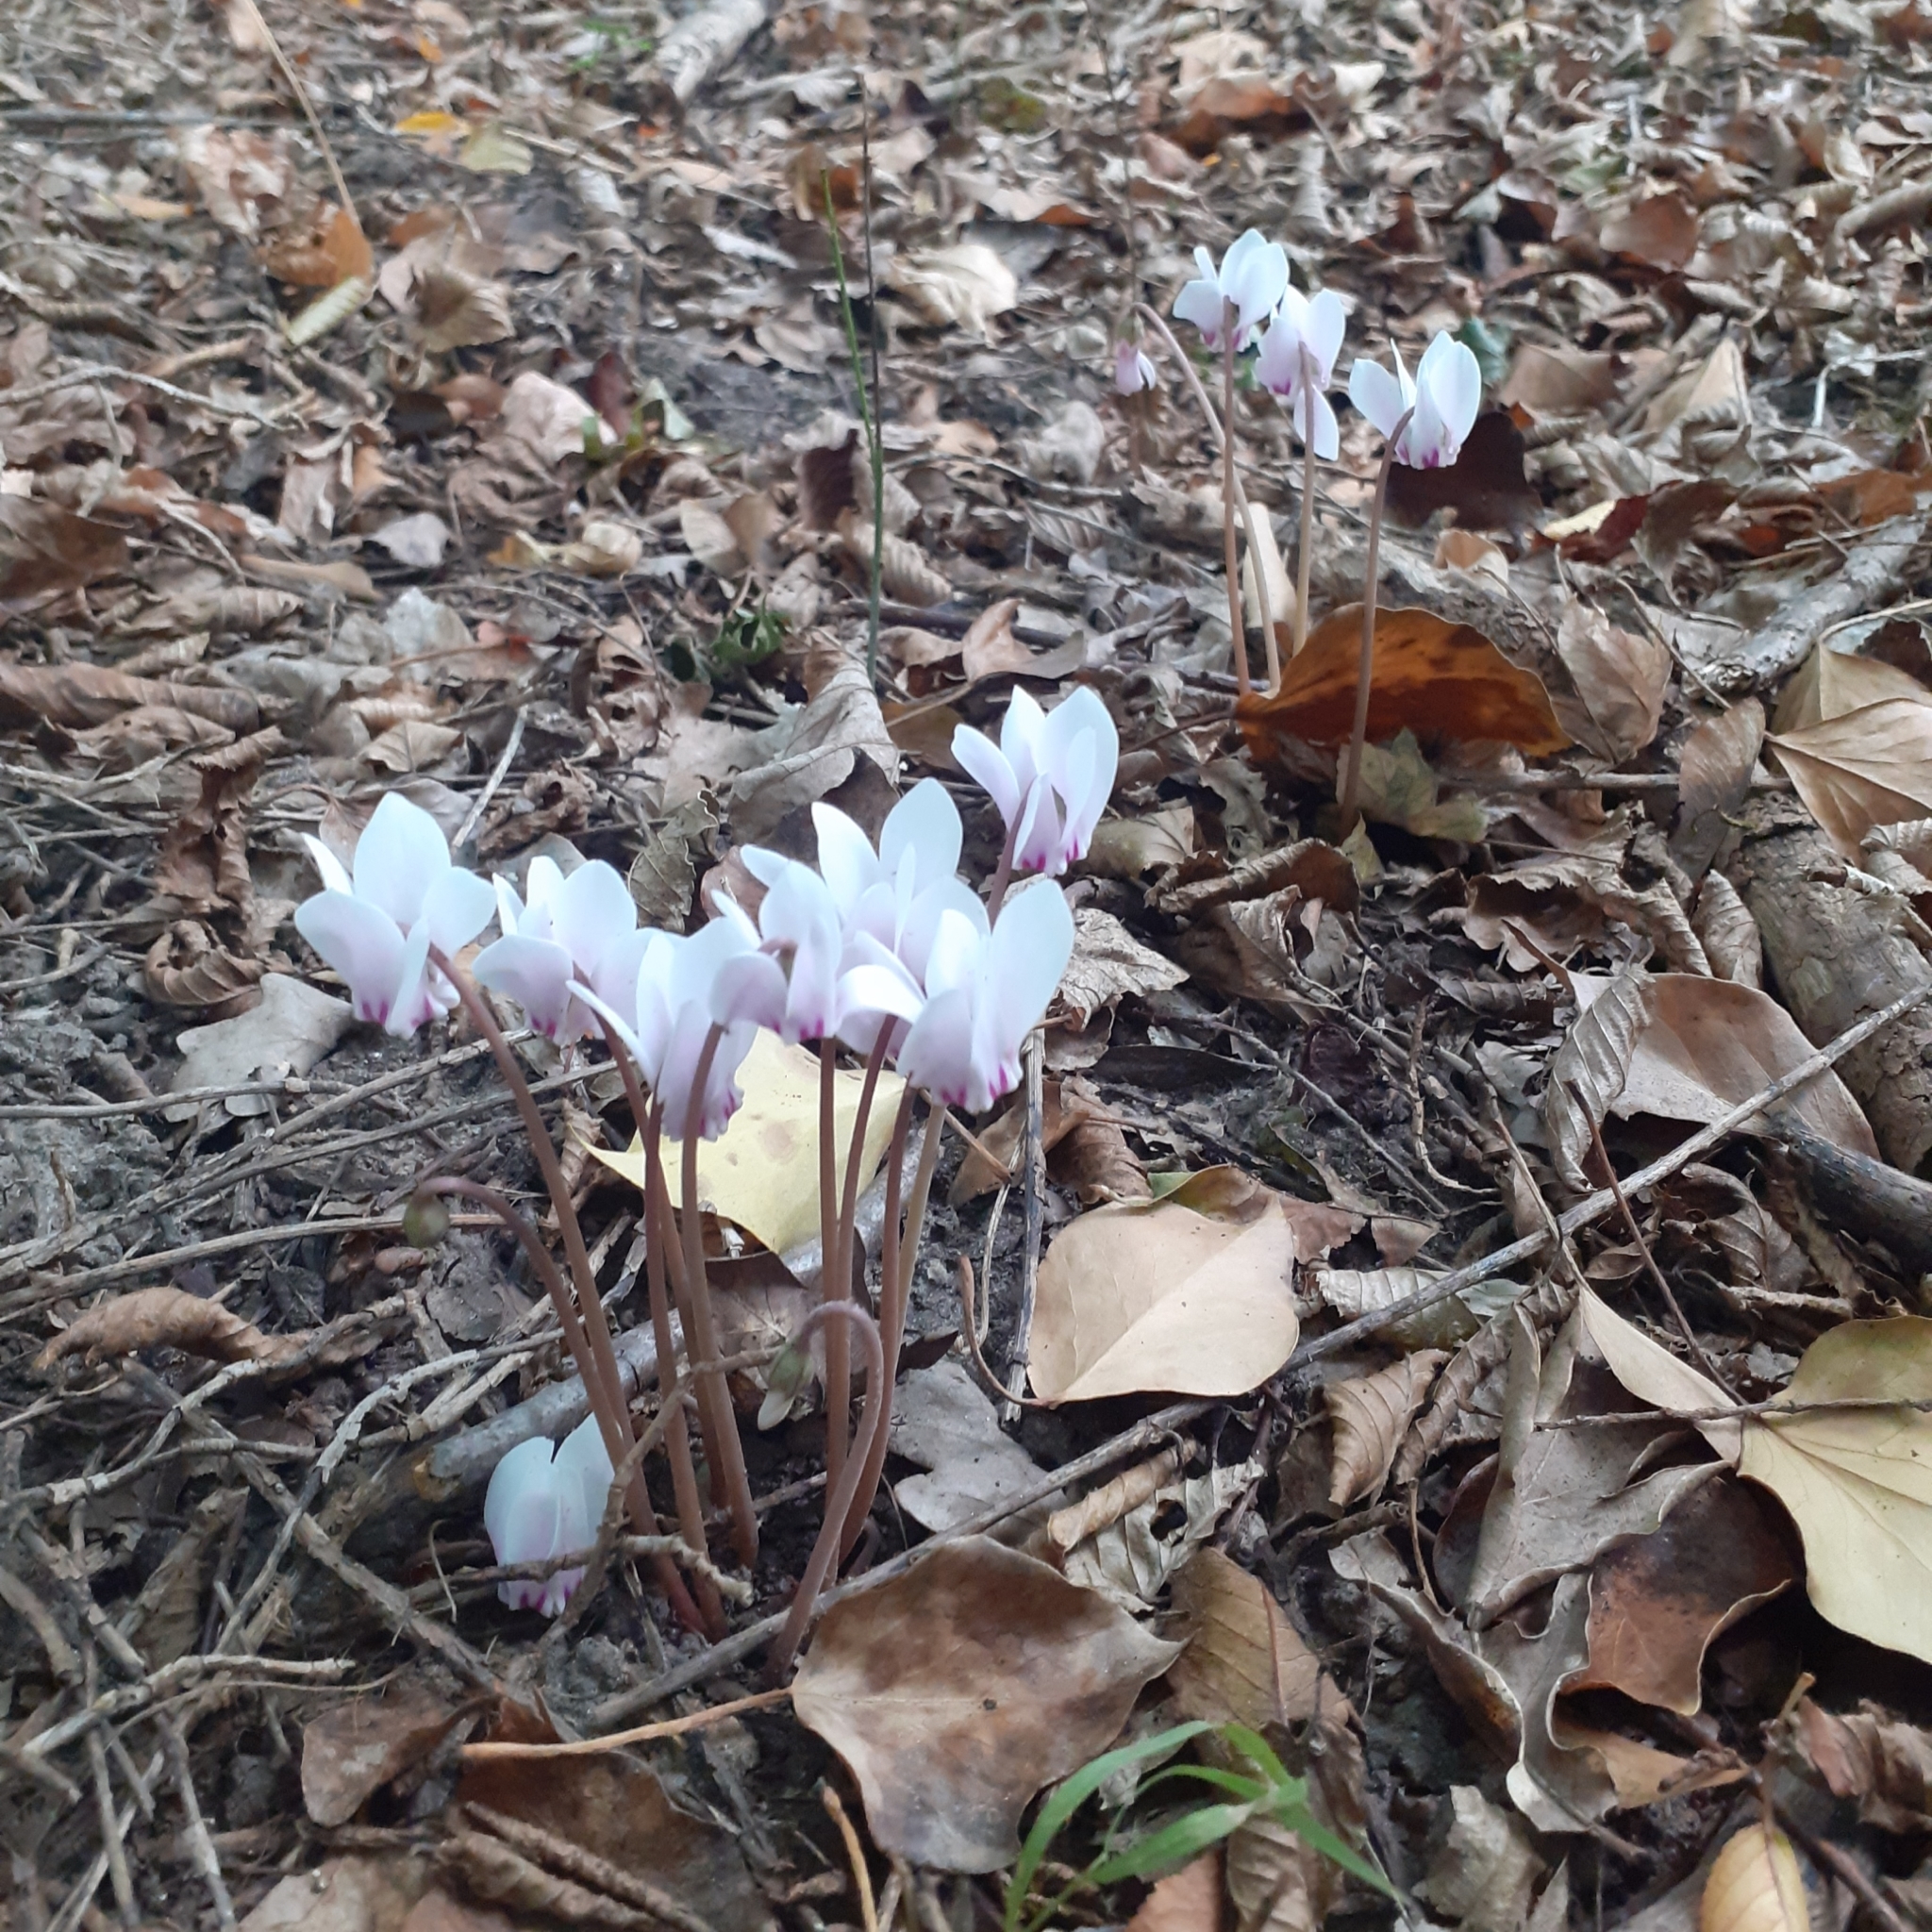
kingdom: Plantae
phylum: Tracheophyta
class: Magnoliopsida
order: Ericales
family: Primulaceae
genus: Cyclamen
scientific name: Cyclamen hederifolium
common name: Sowbread
